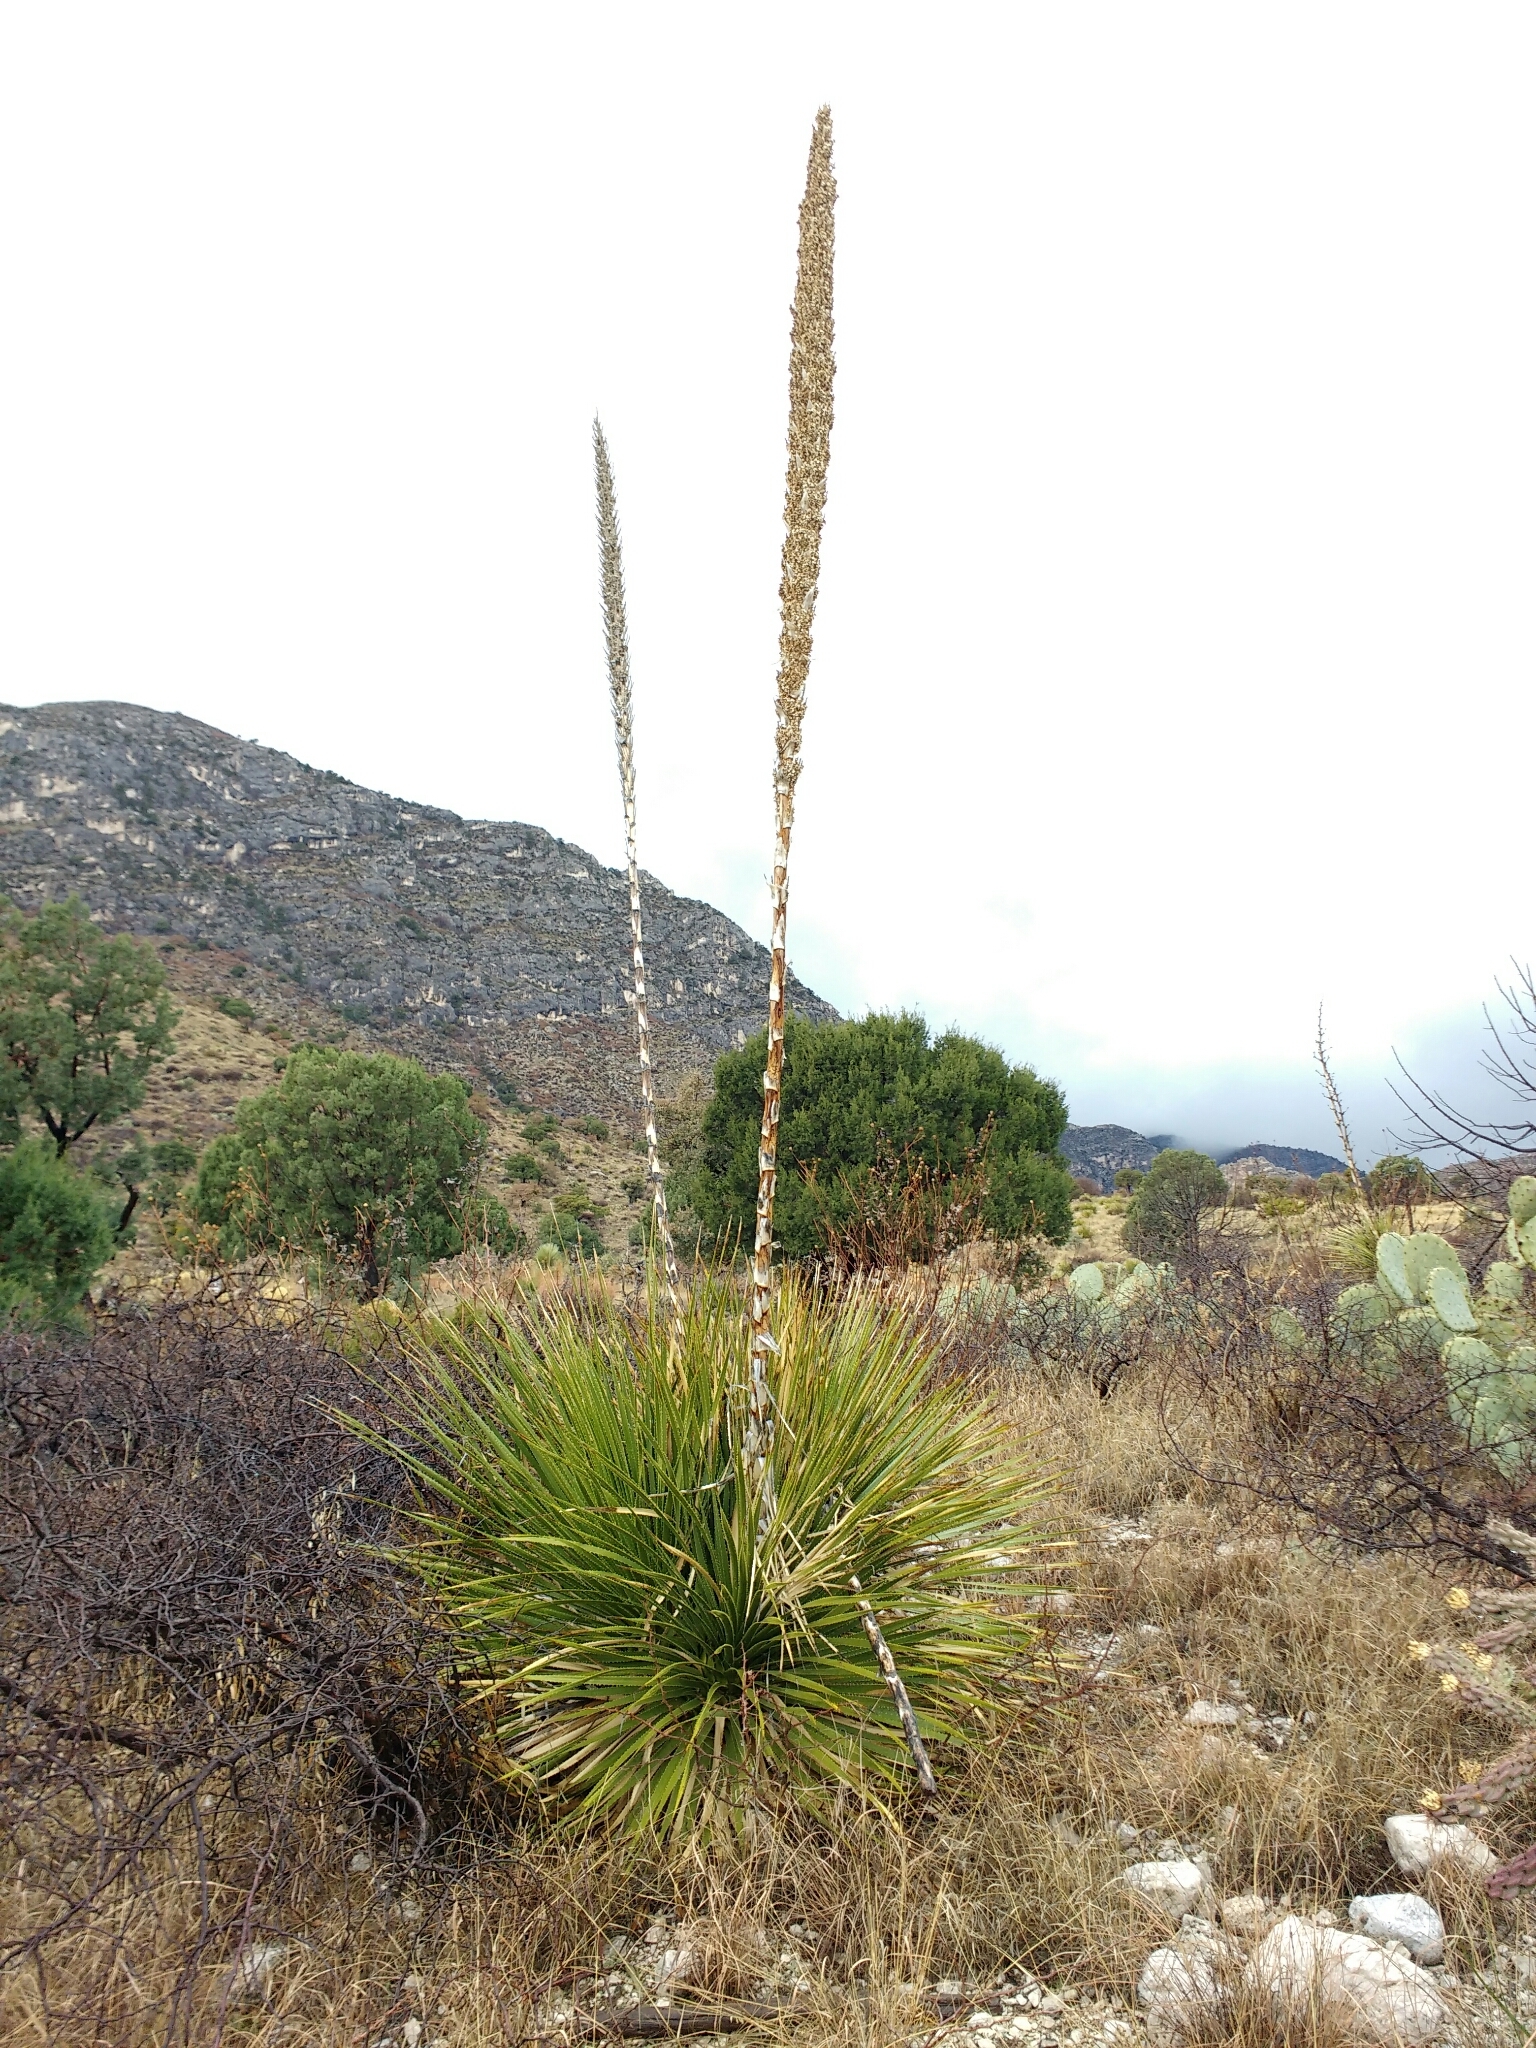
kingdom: Plantae
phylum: Tracheophyta
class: Liliopsida
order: Asparagales
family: Asparagaceae
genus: Dasylirion
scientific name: Dasylirion leiophyllum
